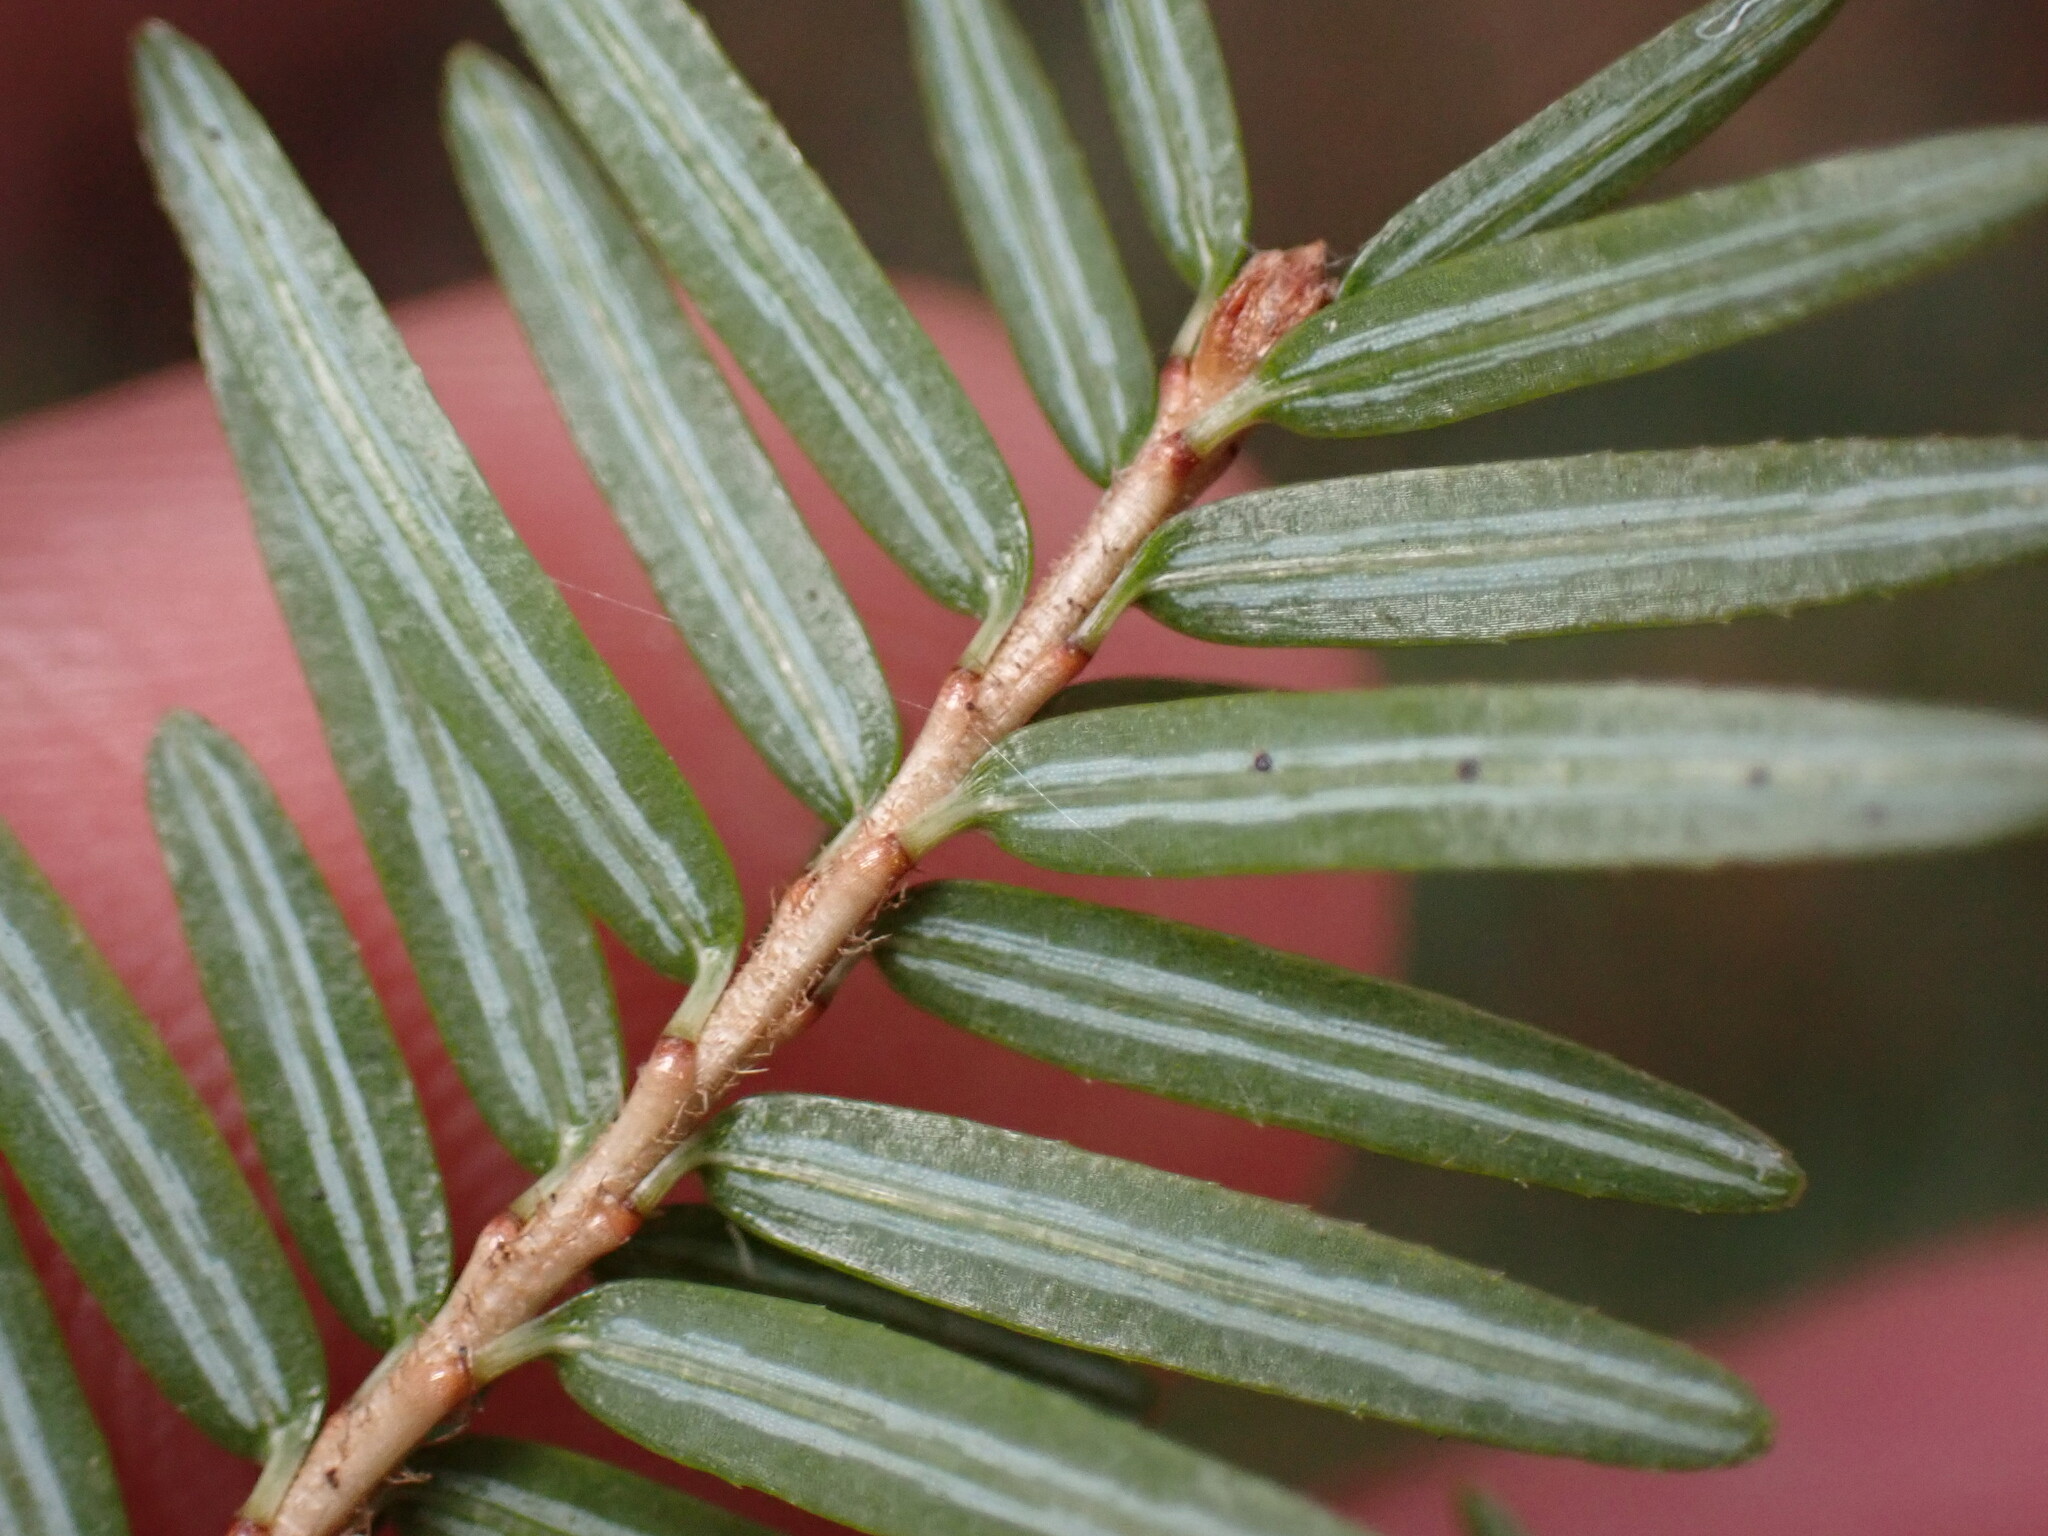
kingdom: Plantae
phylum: Tracheophyta
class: Pinopsida
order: Pinales
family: Pinaceae
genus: Tsuga
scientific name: Tsuga canadensis
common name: Eastern hemlock
